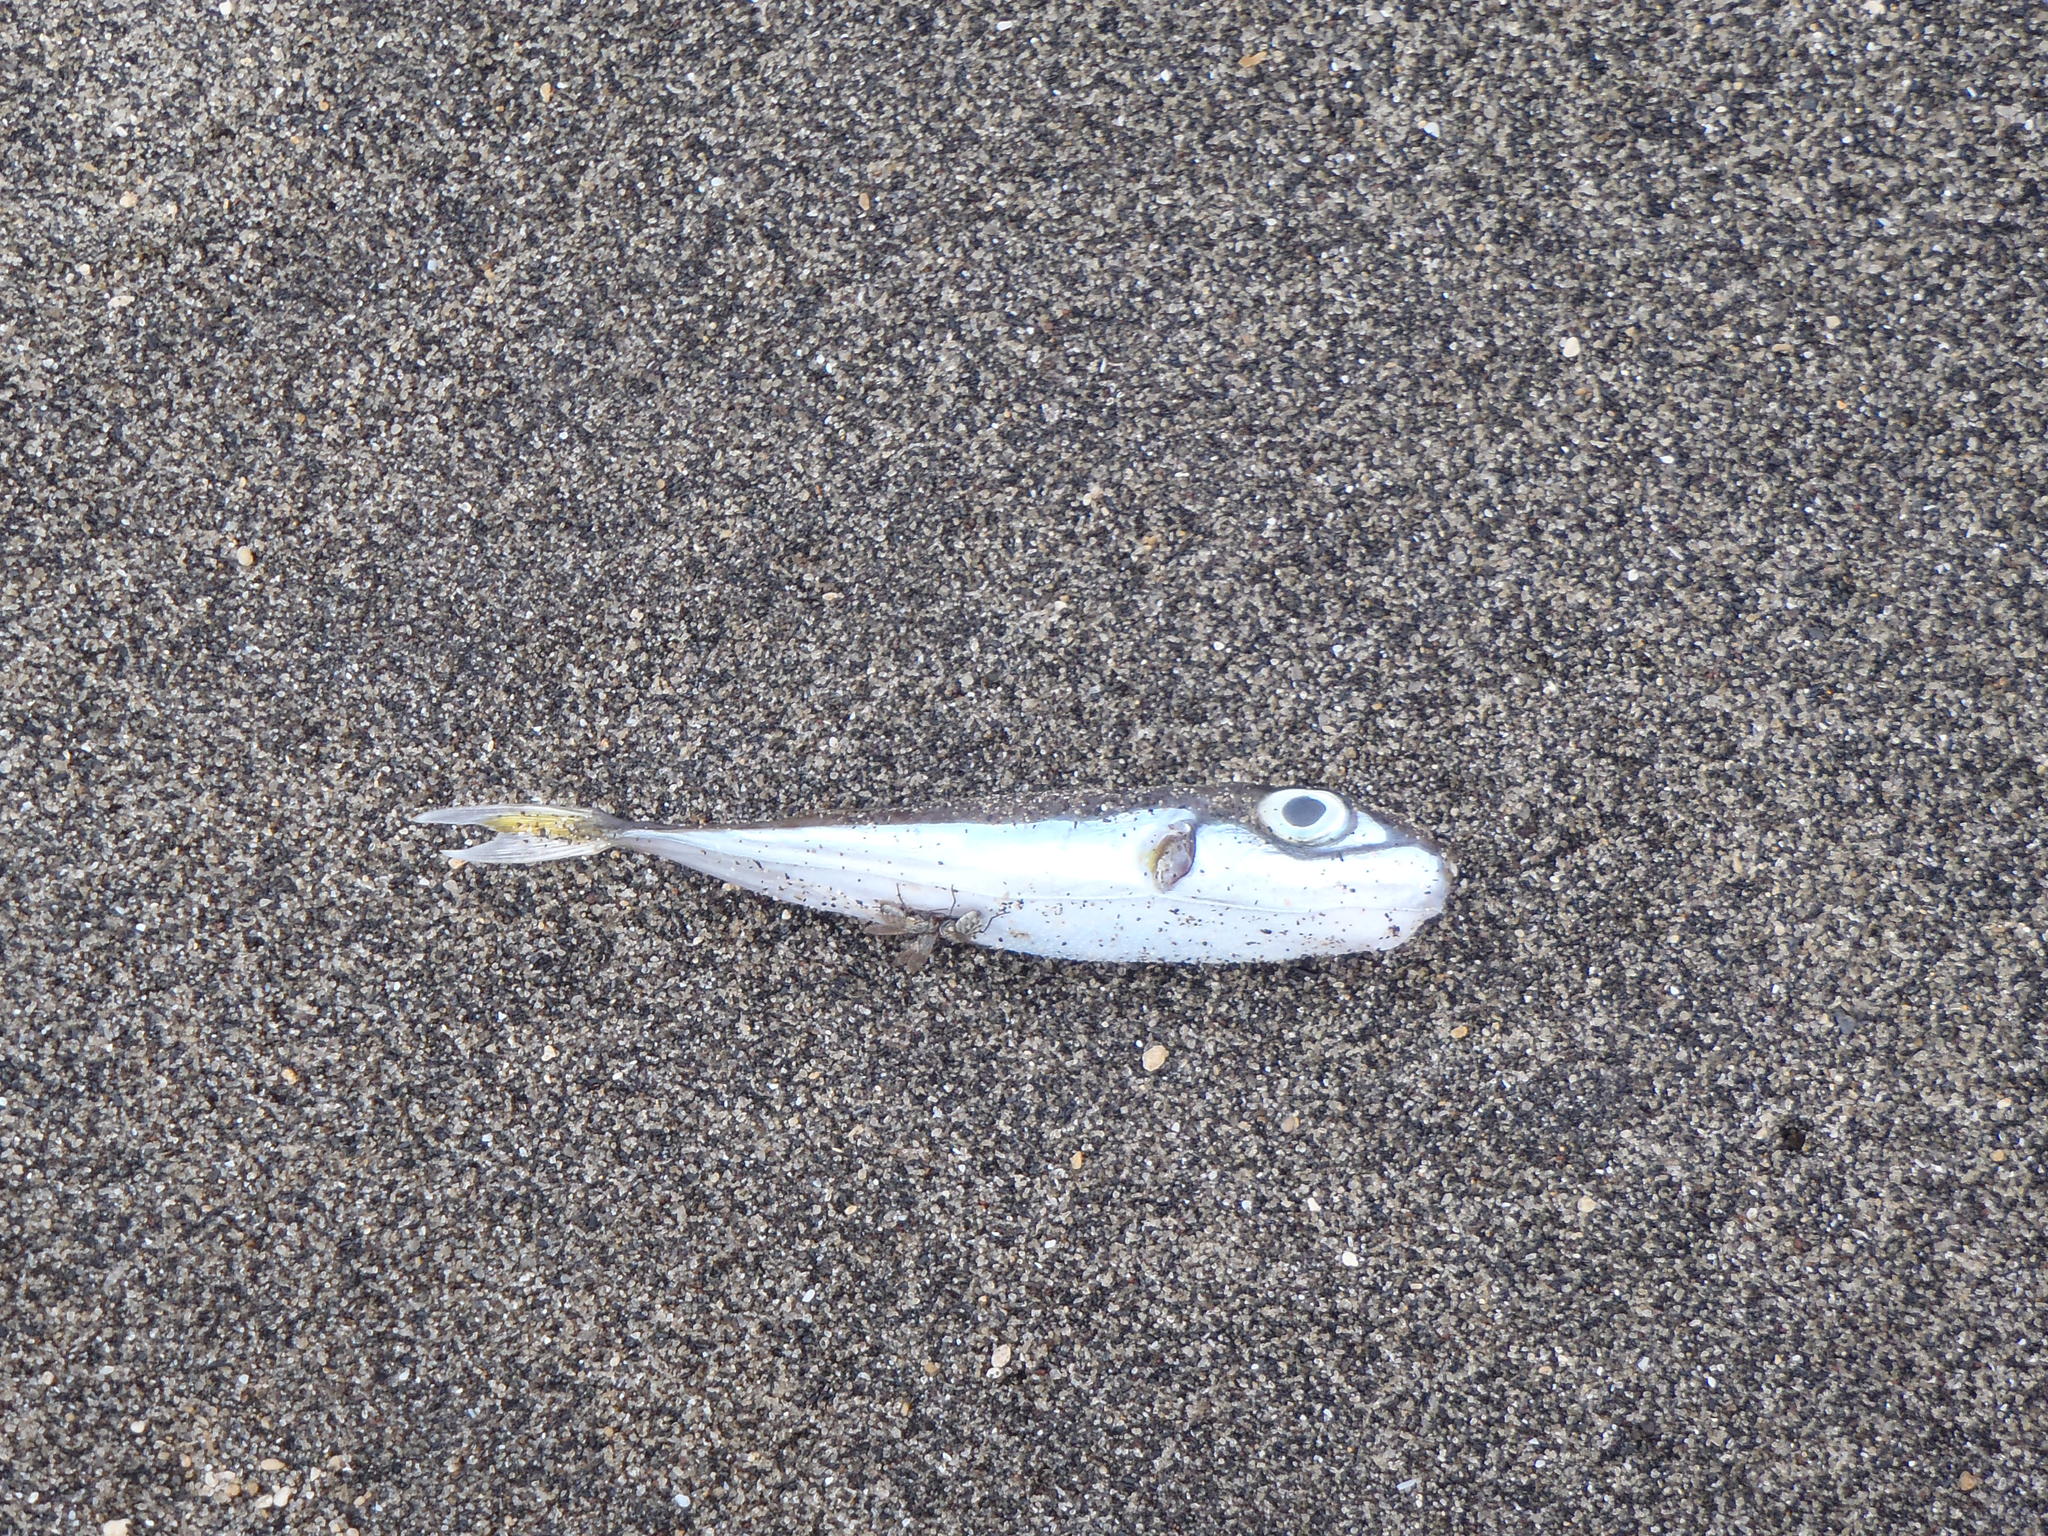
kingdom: Animalia
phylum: Chordata
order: Tetraodontiformes
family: Tetraodontidae
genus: Lagocephalus
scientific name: Lagocephalus suezensis
